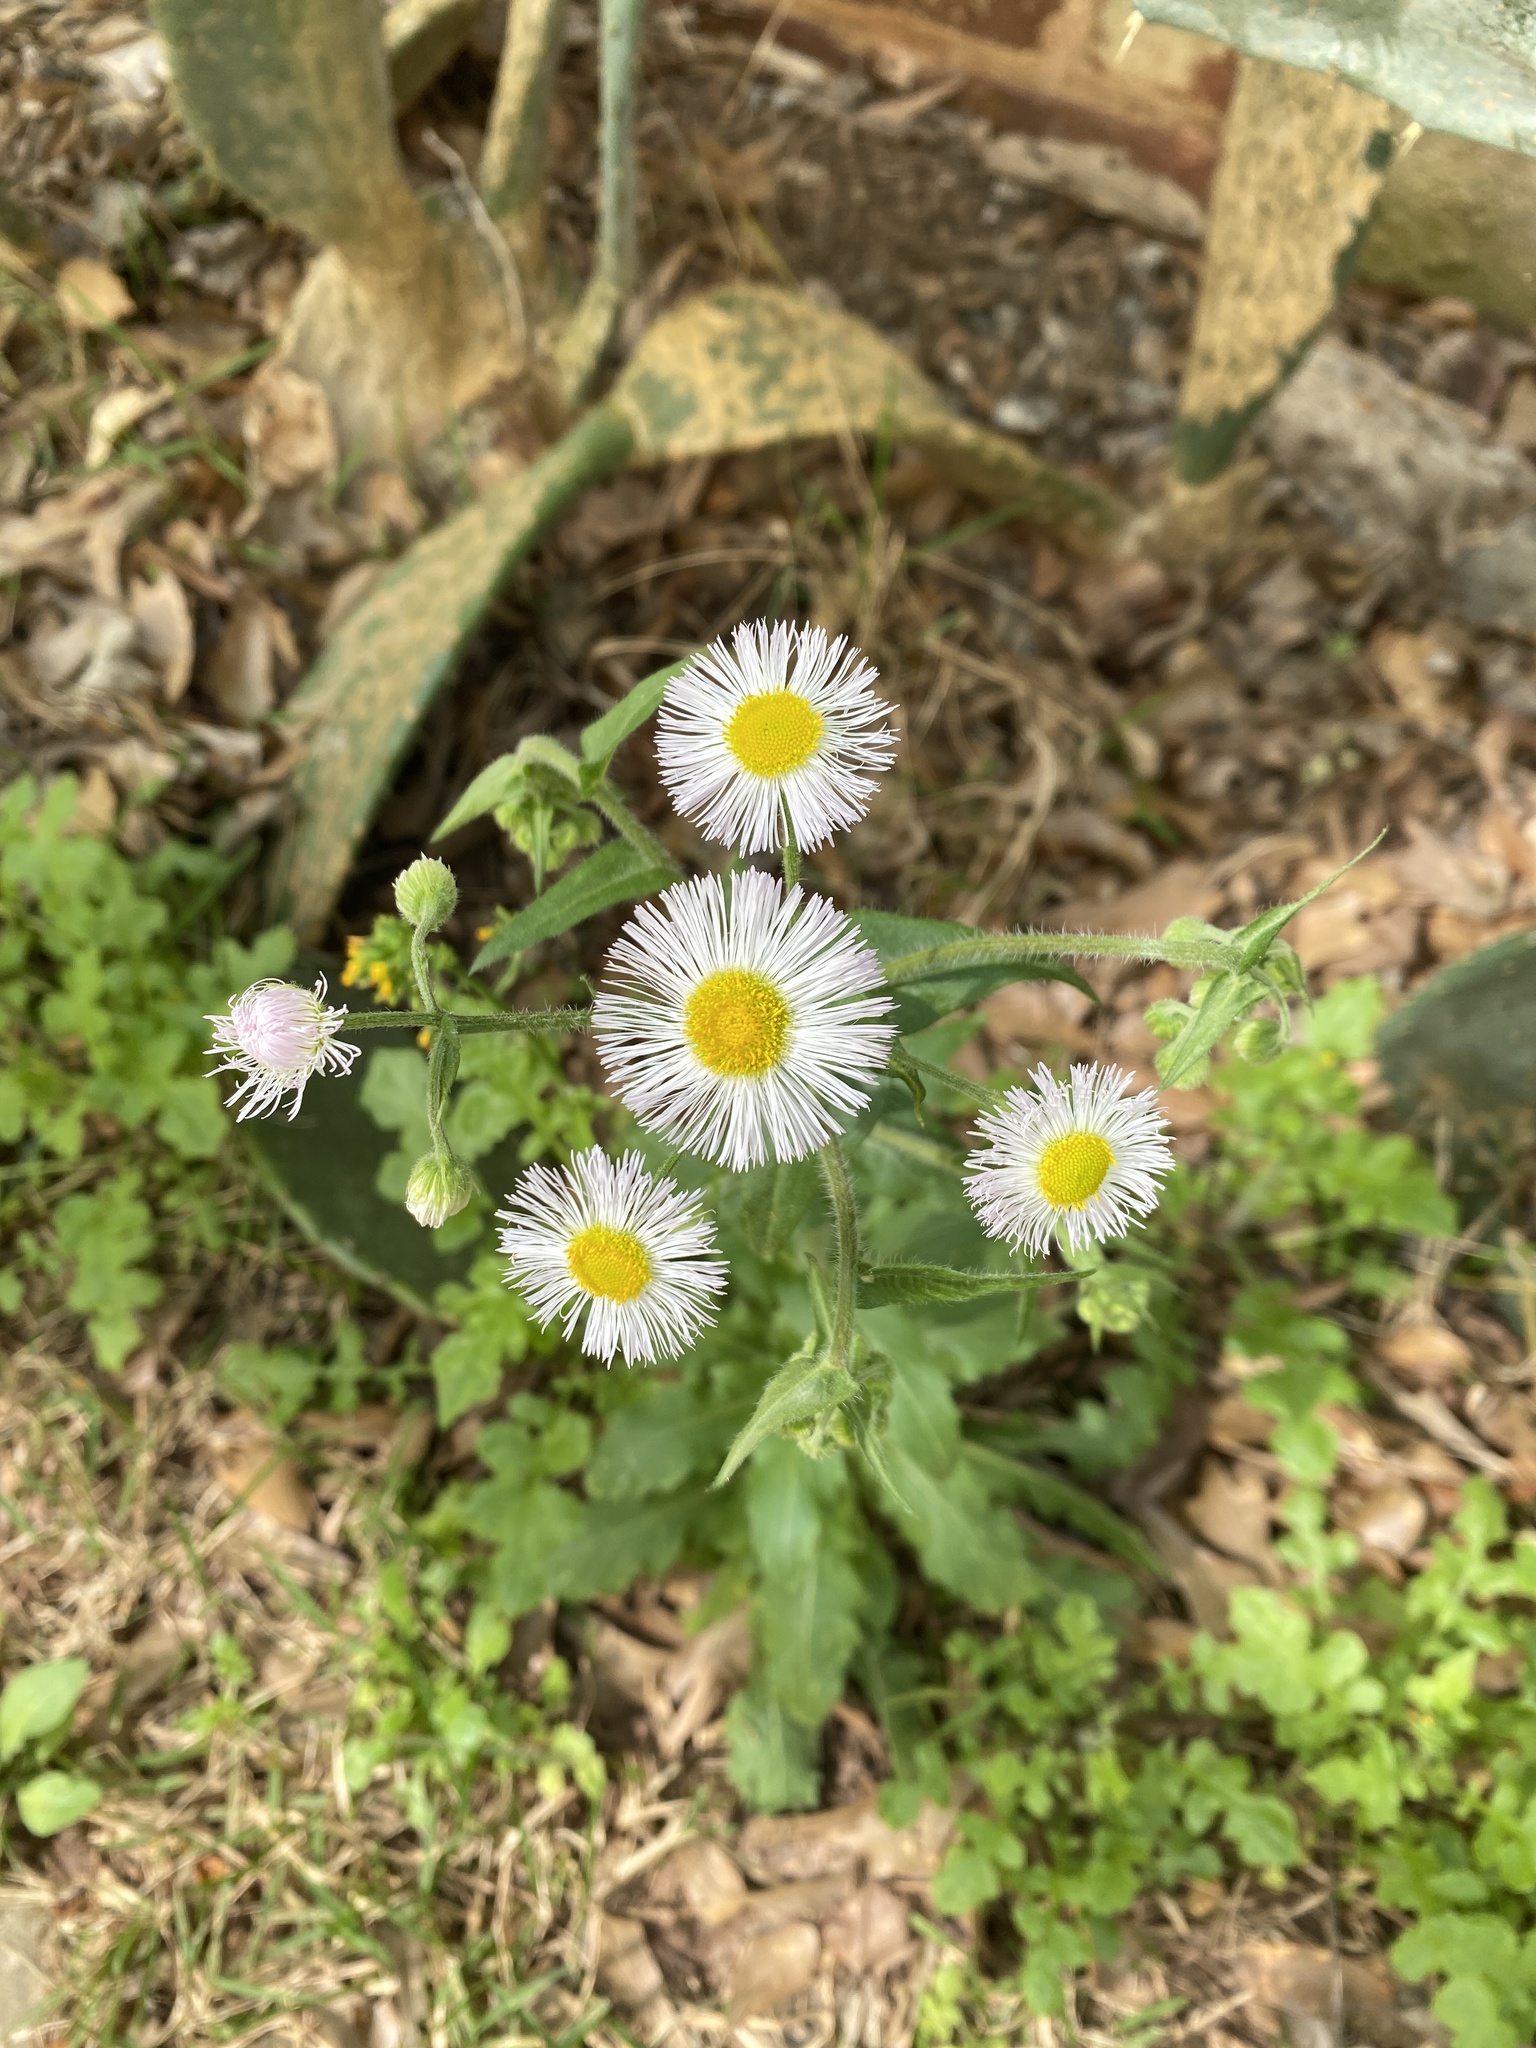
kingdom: Plantae
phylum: Tracheophyta
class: Magnoliopsida
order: Asterales
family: Asteraceae
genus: Erigeron
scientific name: Erigeron philadelphicus
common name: Robin's-plantain
